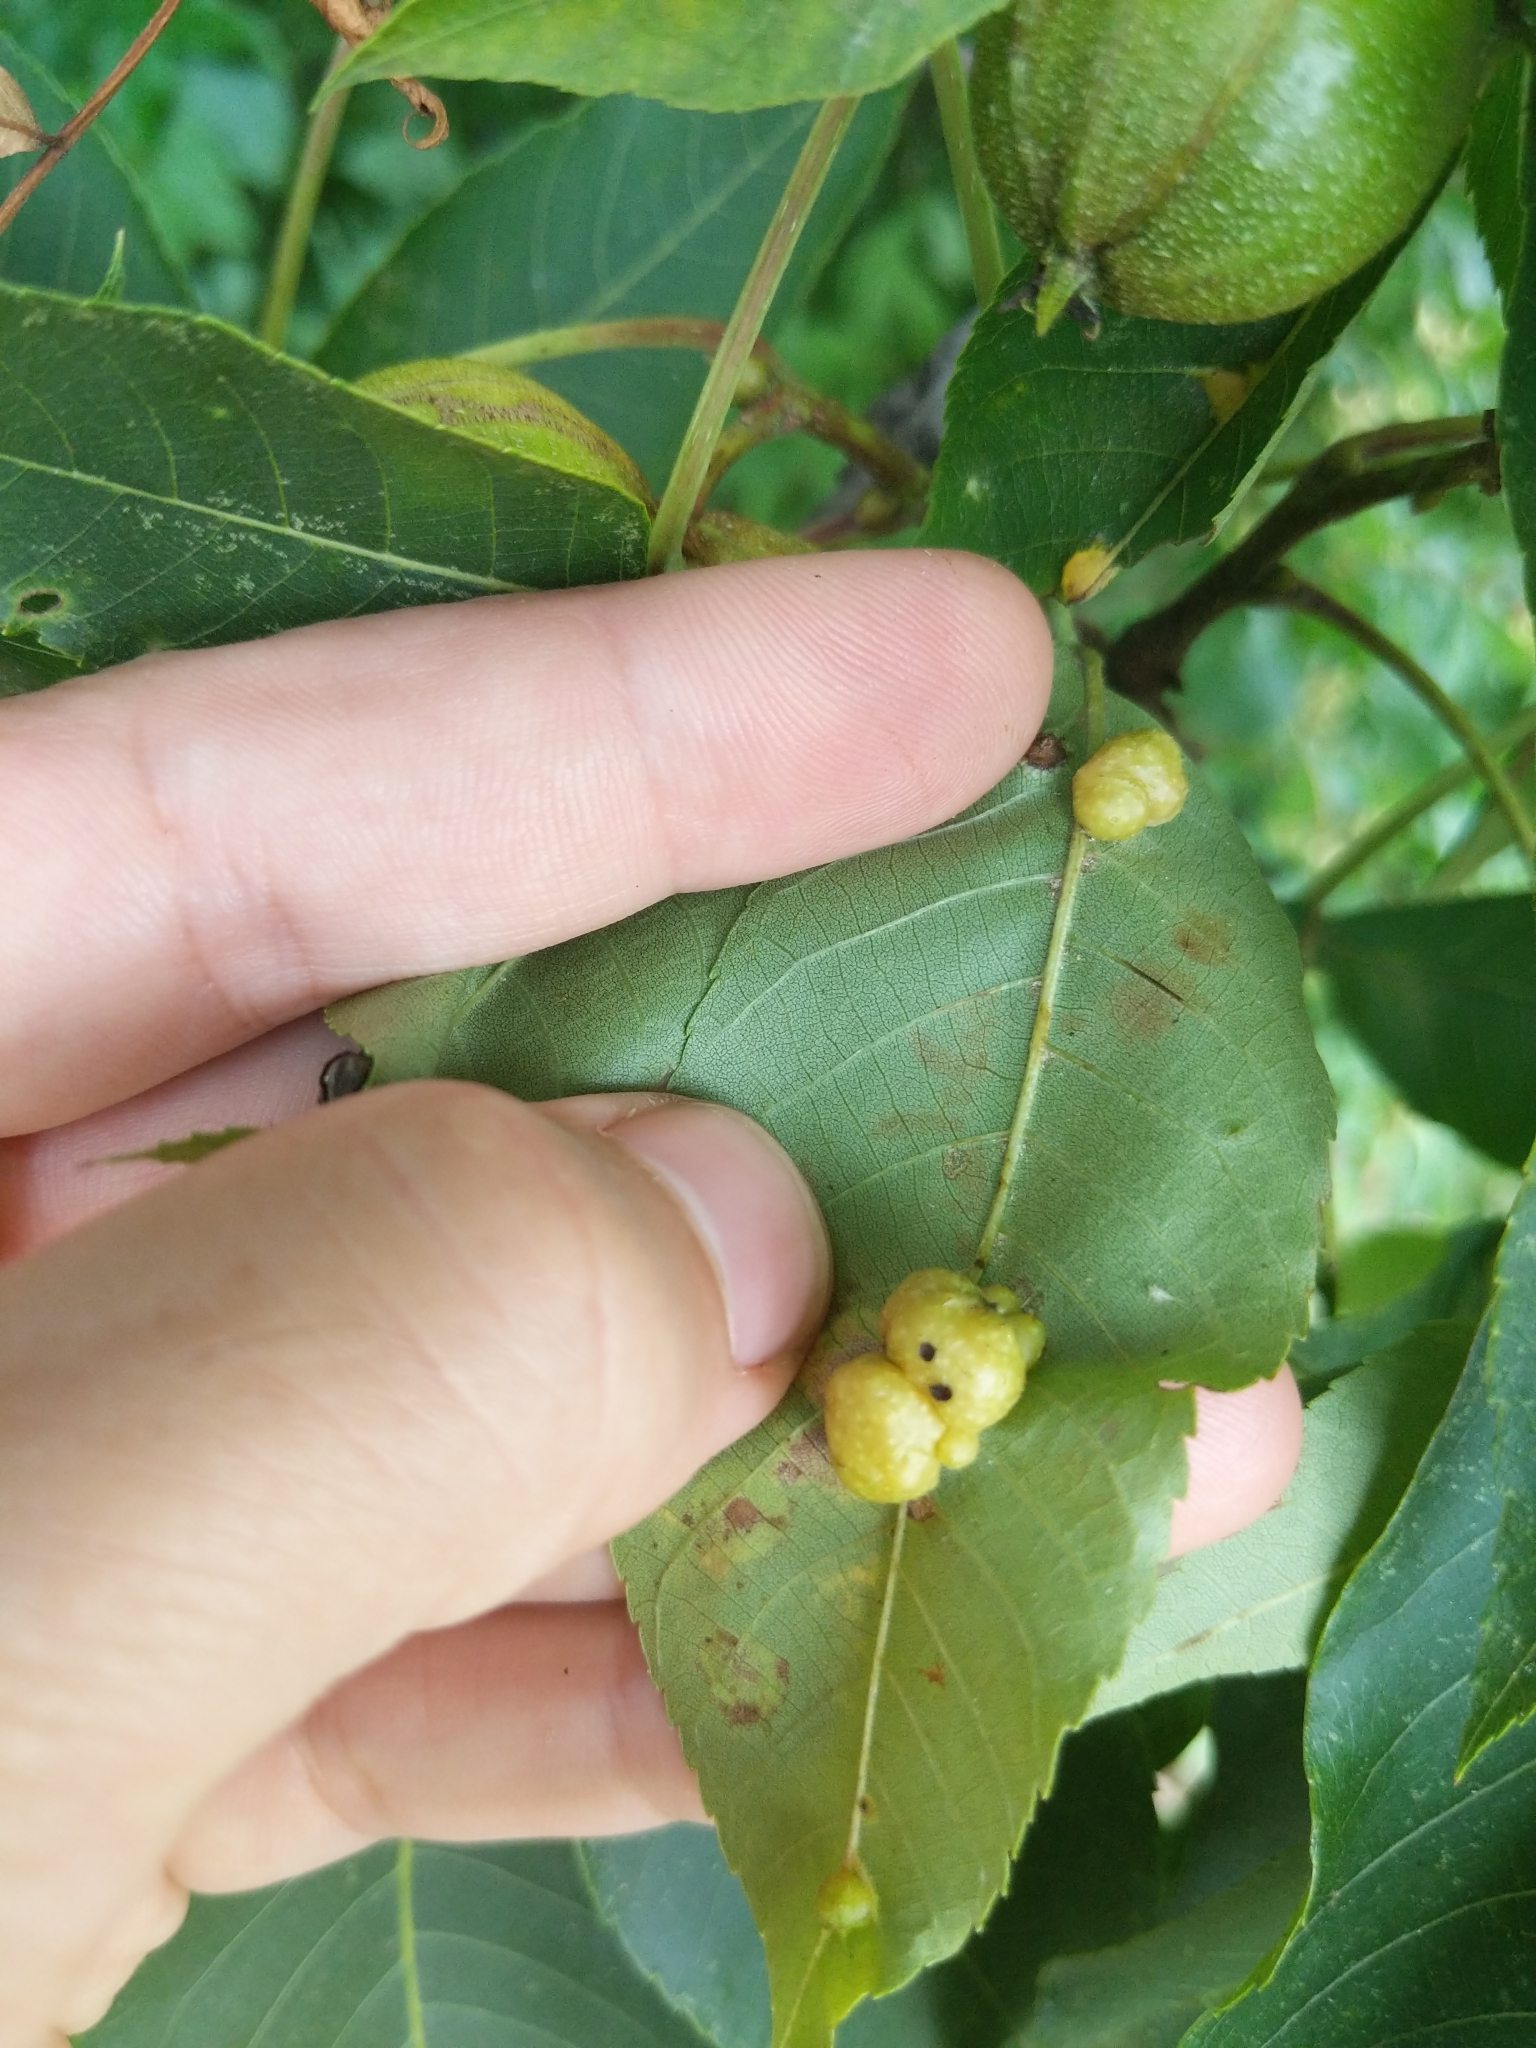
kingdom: Animalia
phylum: Arthropoda
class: Insecta
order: Diptera
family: Cecidomyiidae
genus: Caryomyia
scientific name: Caryomyia cynipsea
